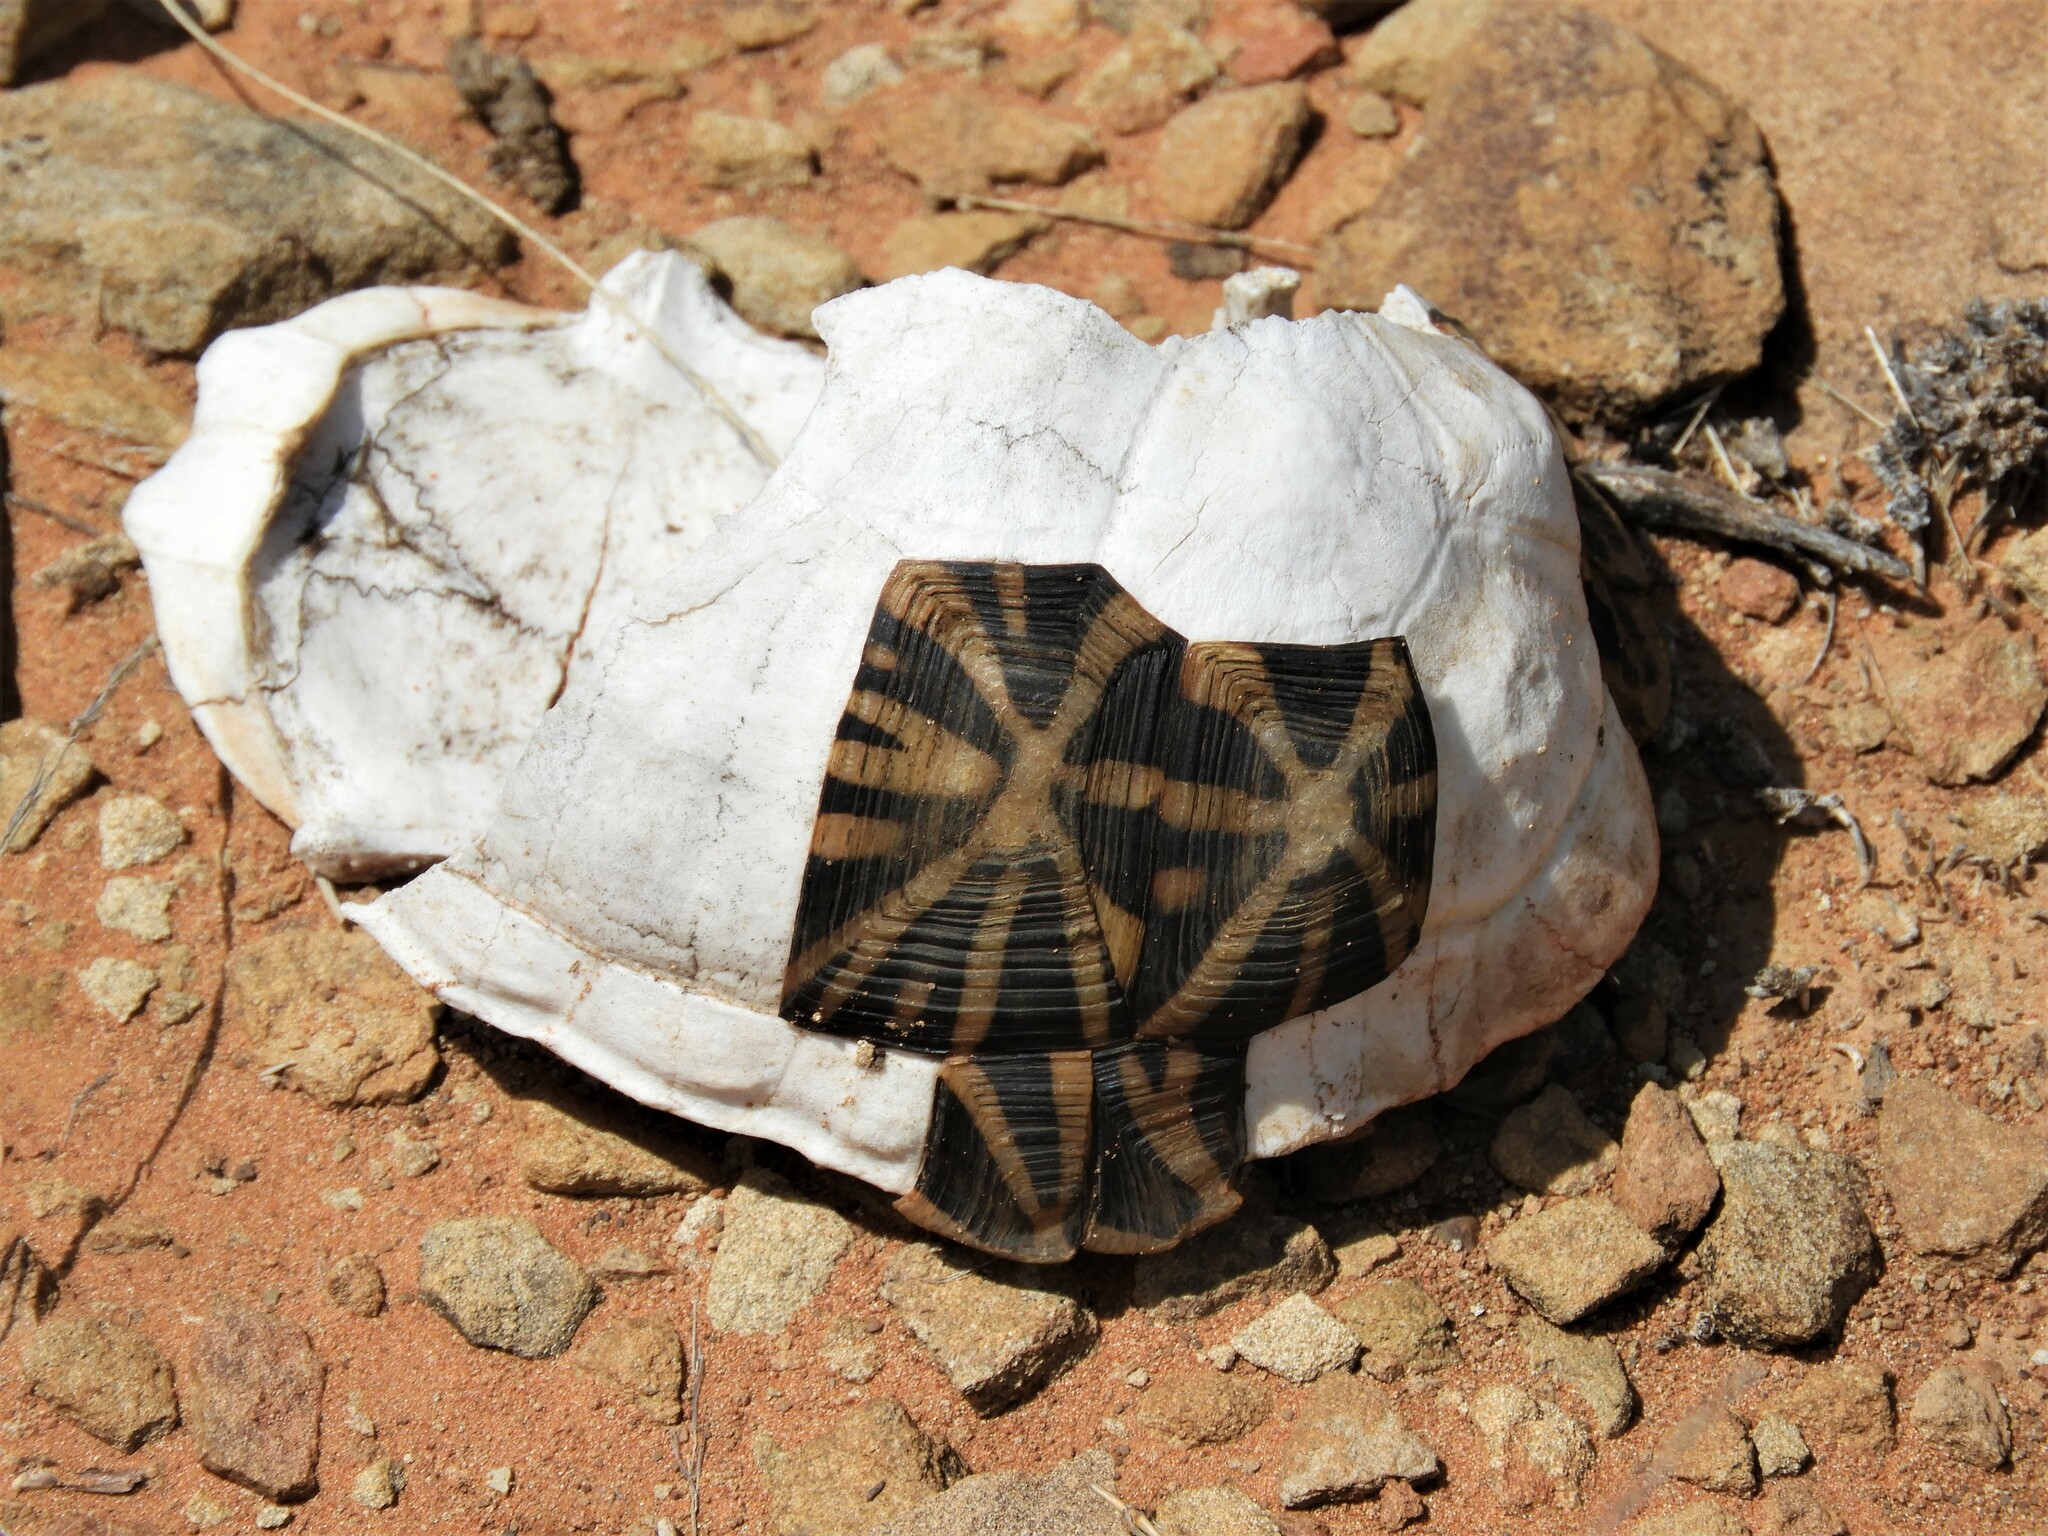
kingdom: Animalia
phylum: Chordata
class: Testudines
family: Testudinidae
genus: Psammobates
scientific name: Psammobates tentorius
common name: Tent tortoise
